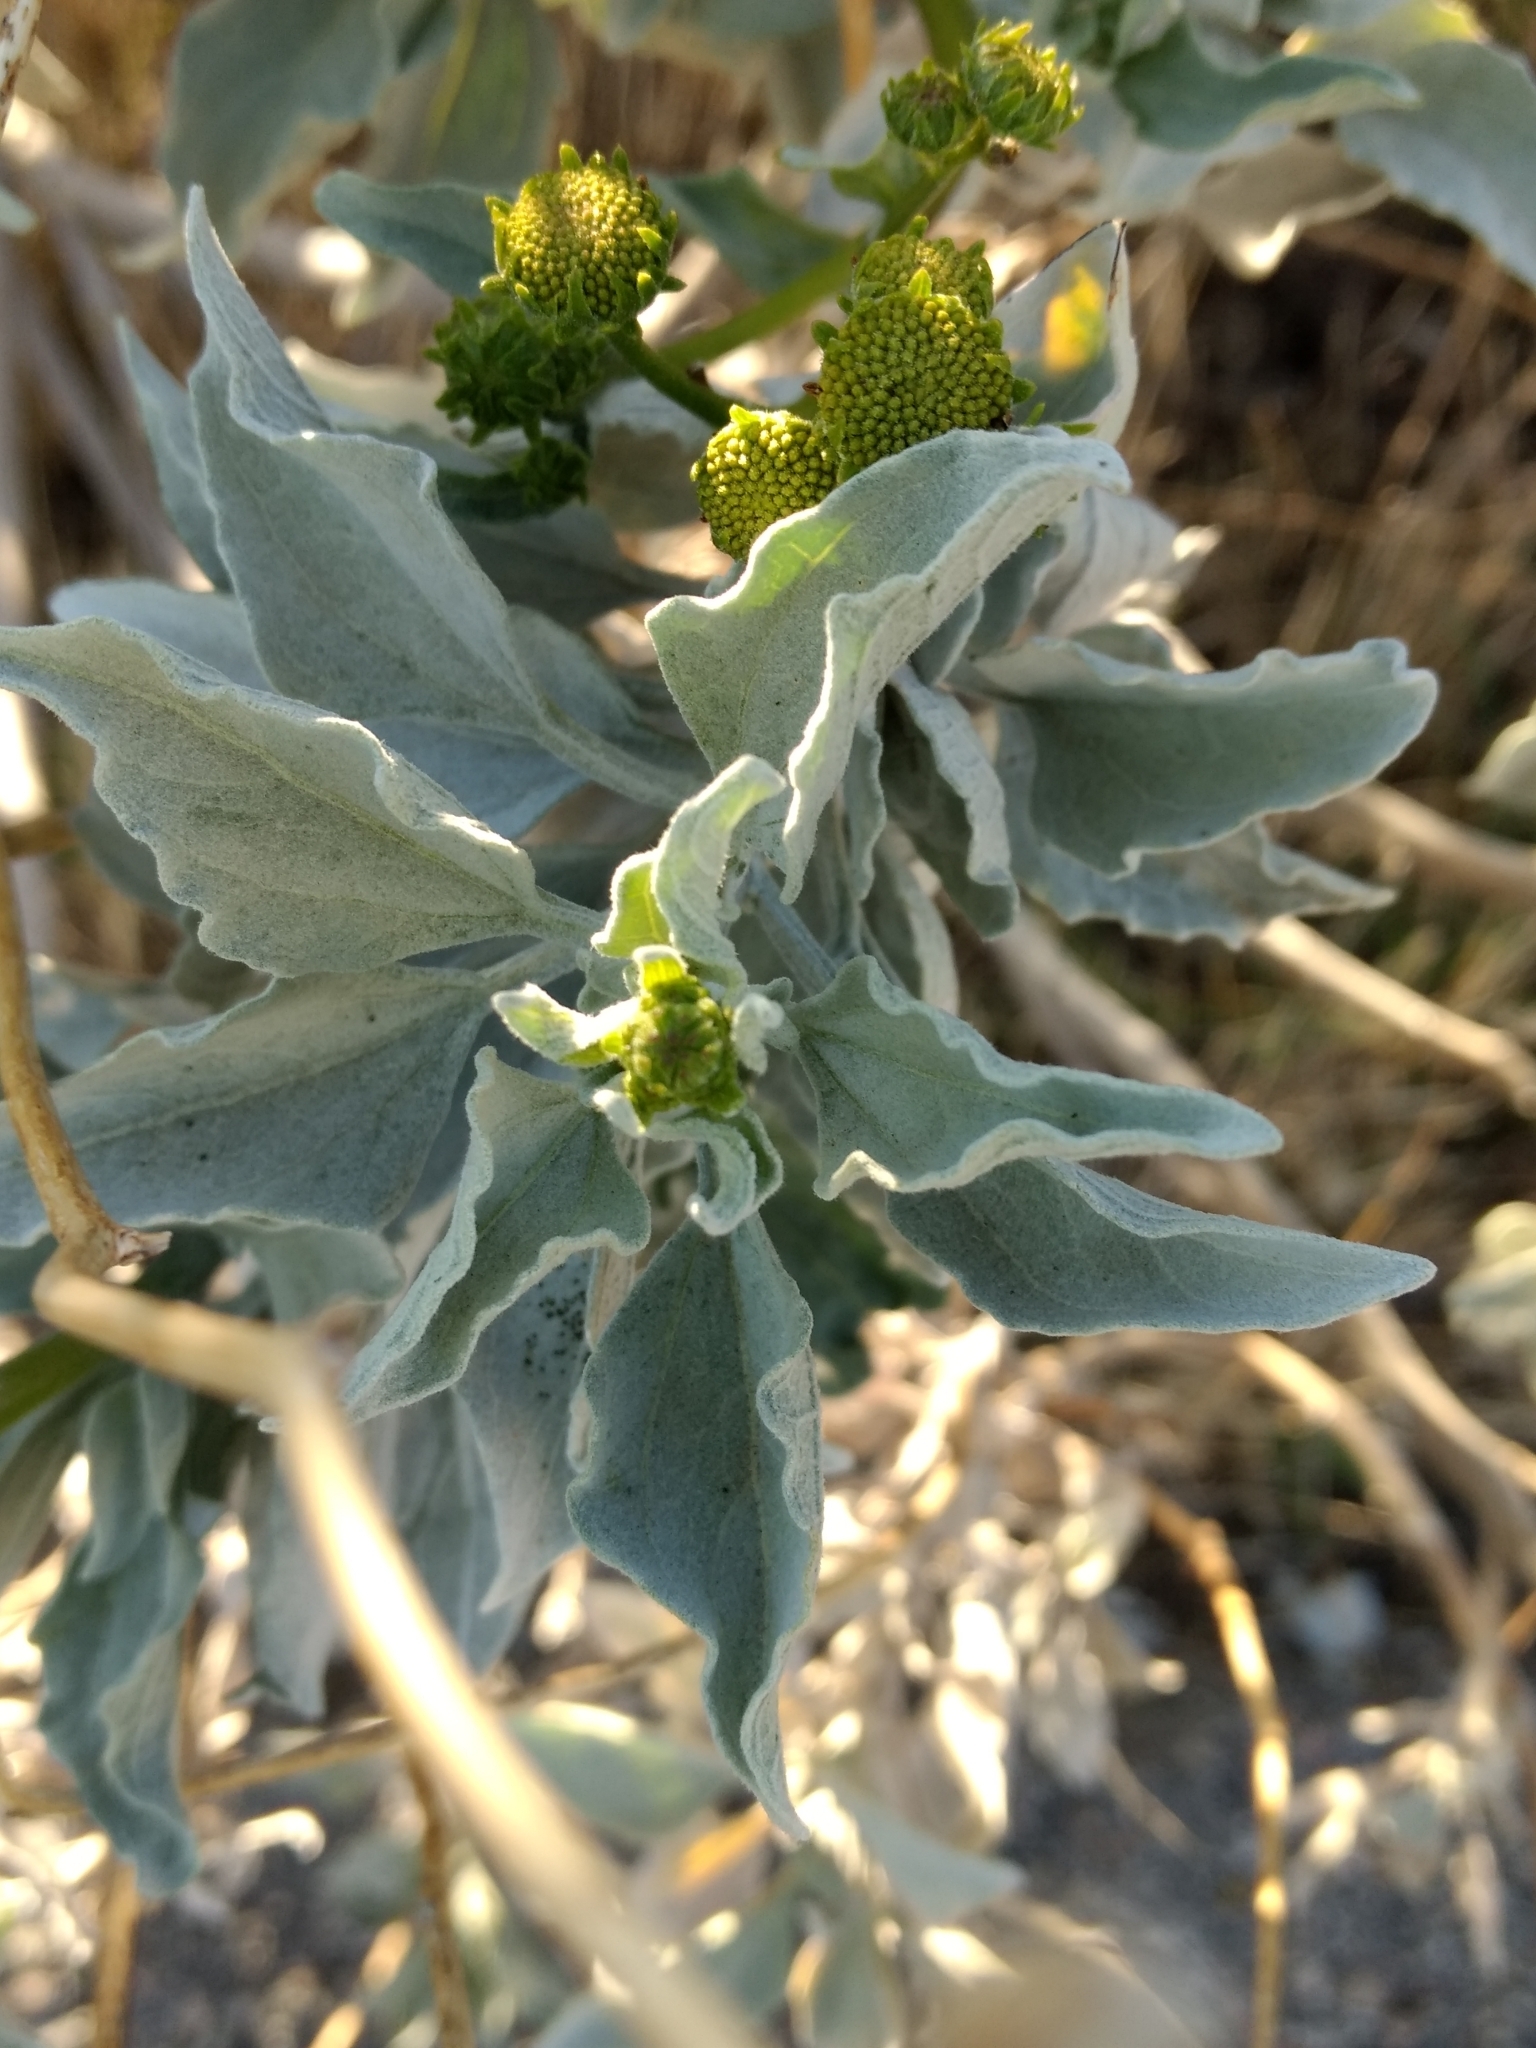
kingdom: Plantae
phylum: Tracheophyta
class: Magnoliopsida
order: Asterales
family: Asteraceae
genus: Encelia
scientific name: Encelia farinosa
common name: Brittlebush
